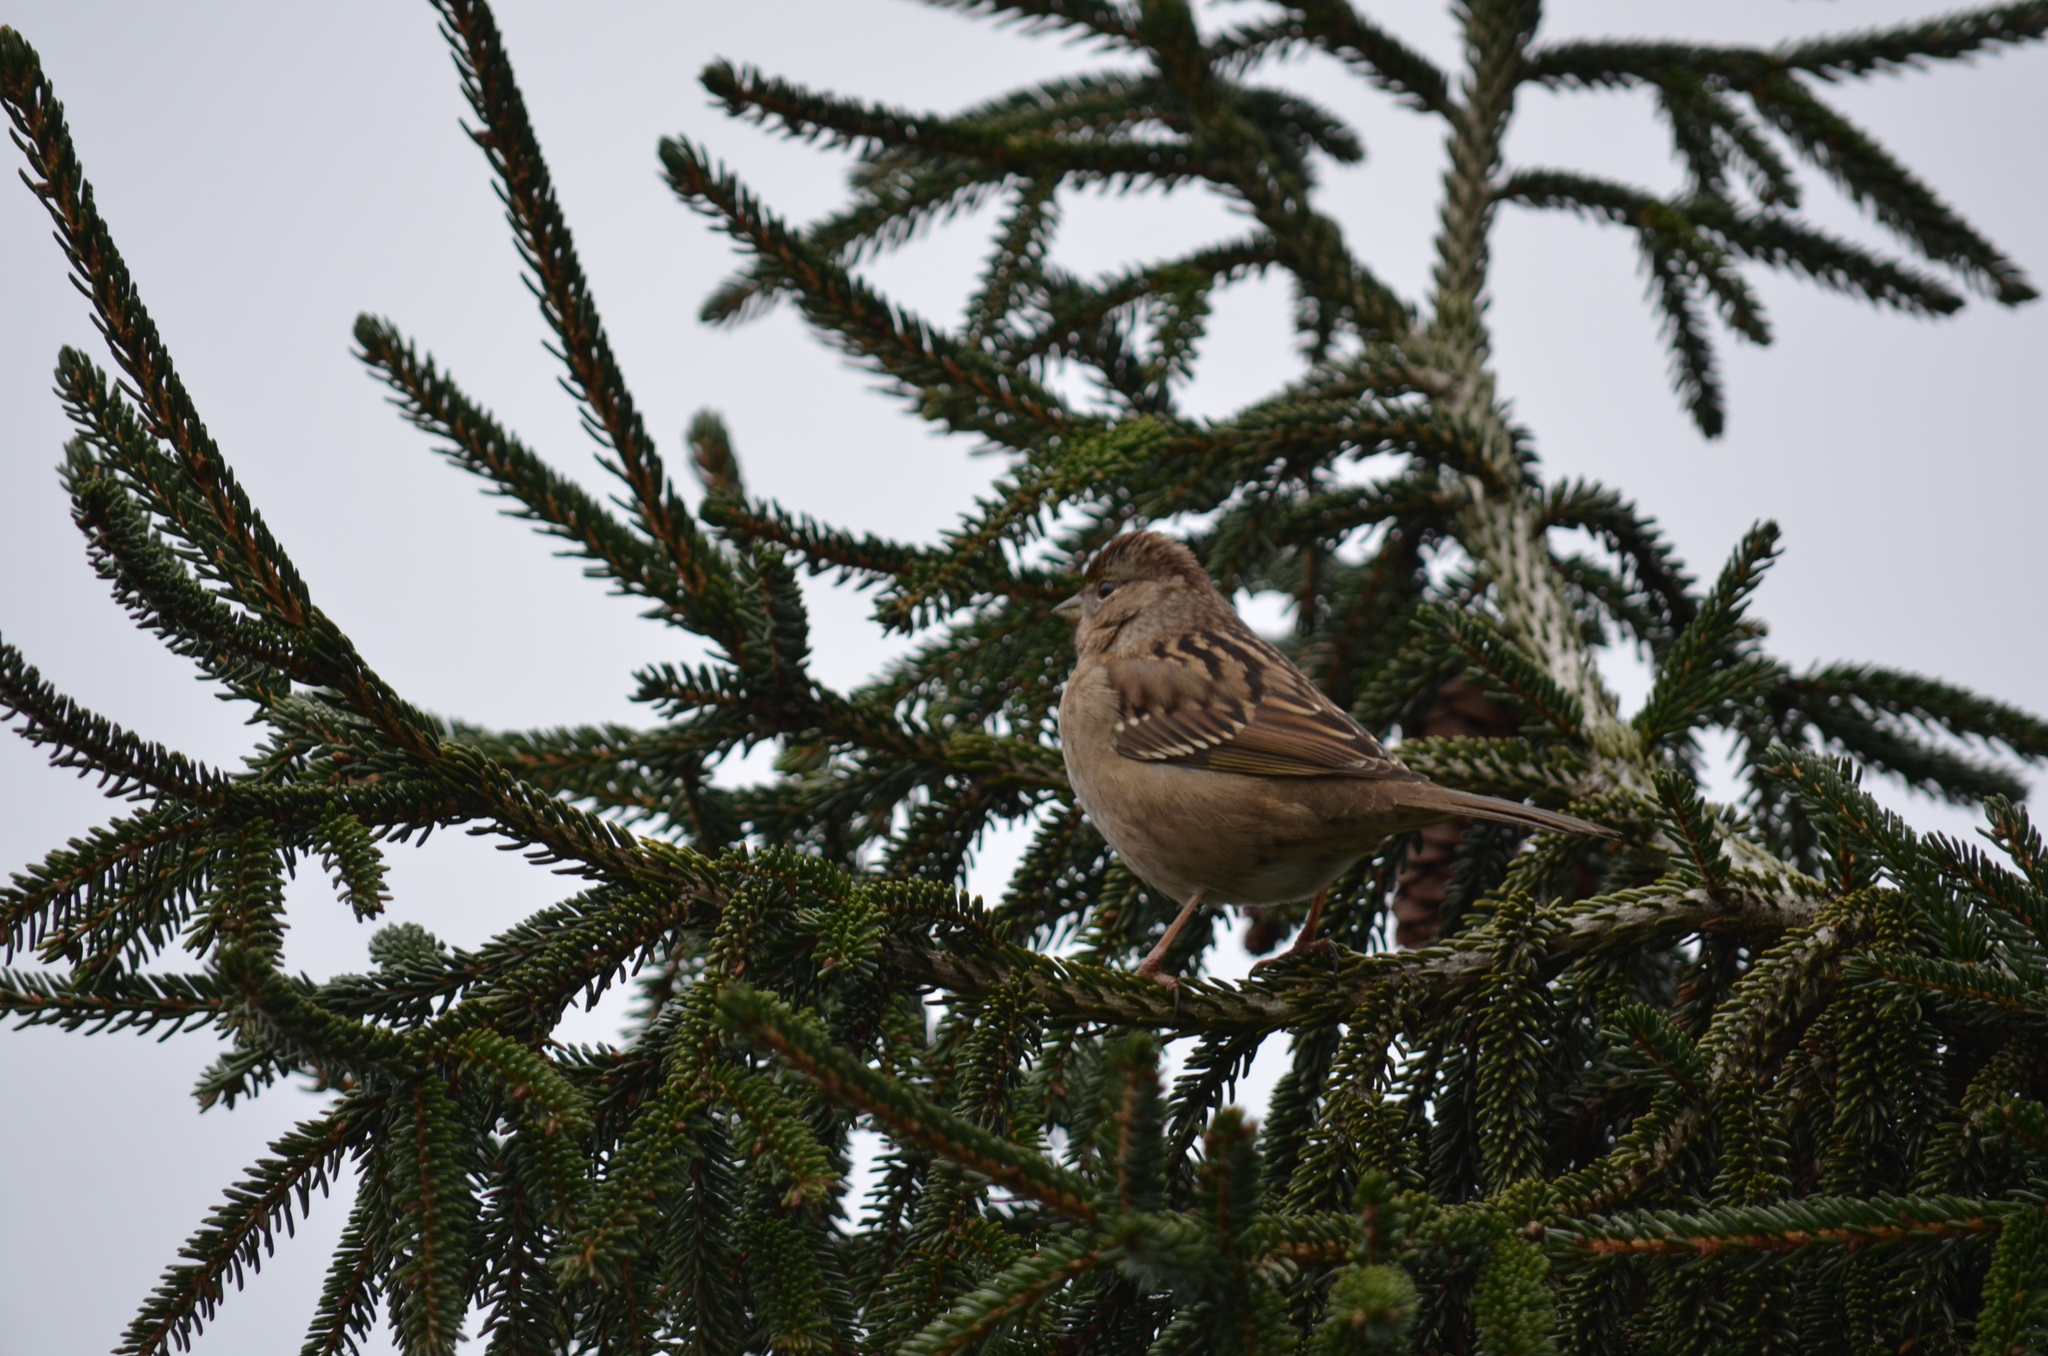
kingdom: Animalia
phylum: Chordata
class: Aves
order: Passeriformes
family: Passerellidae
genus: Zonotrichia
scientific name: Zonotrichia atricapilla
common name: Golden-crowned sparrow
